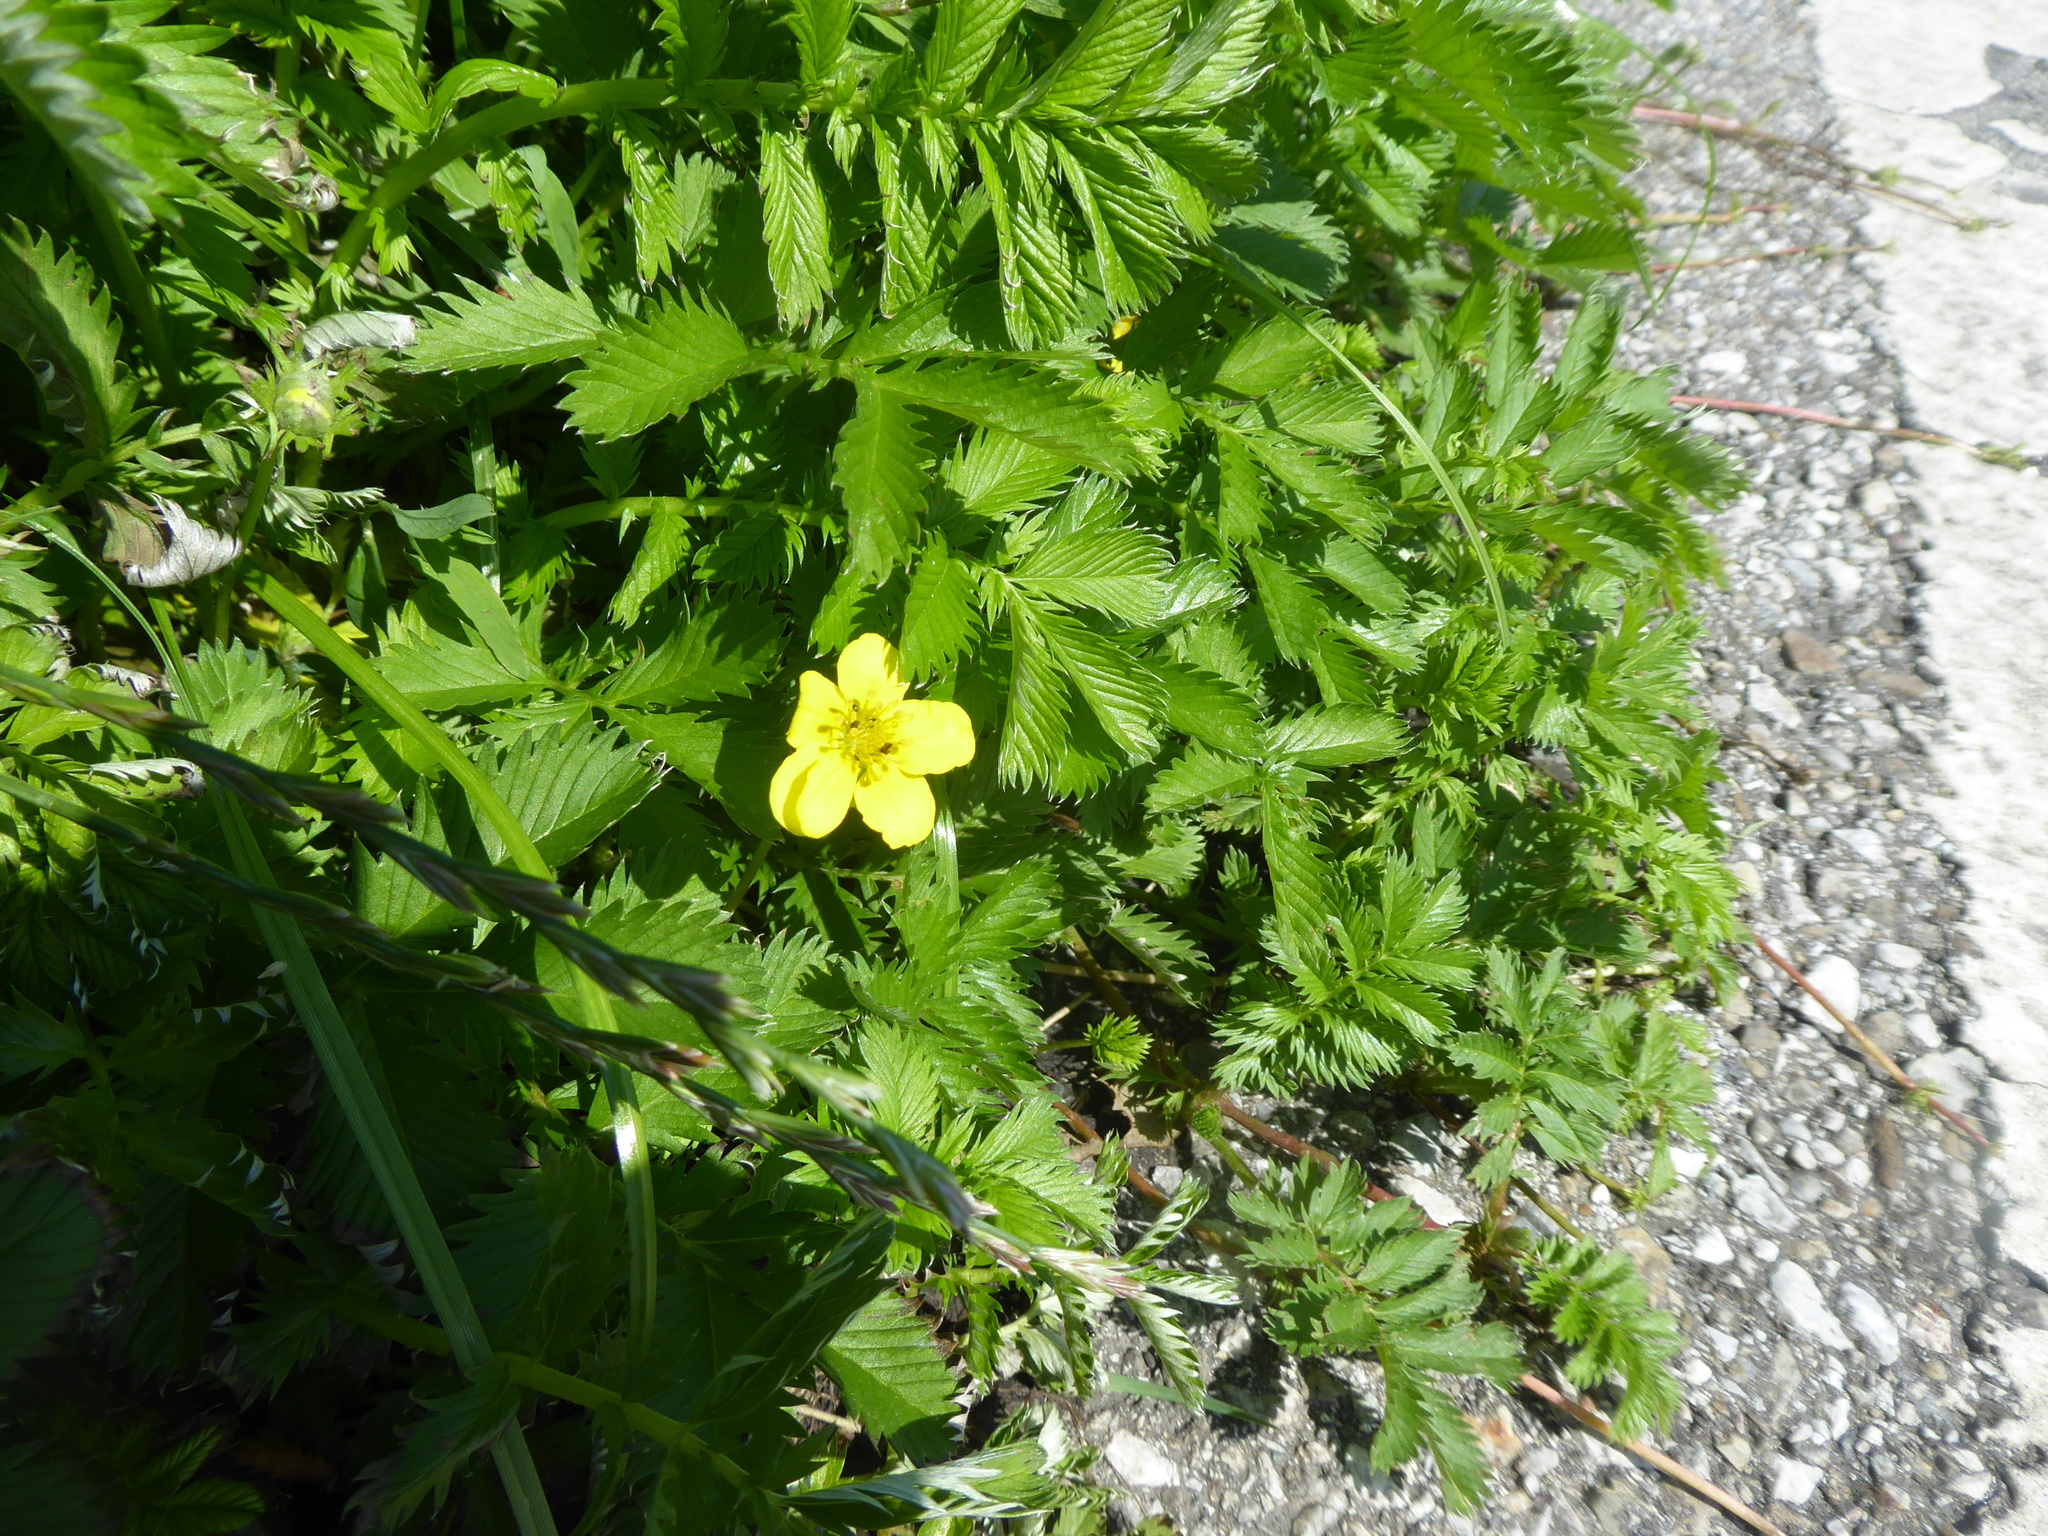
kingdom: Plantae
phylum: Tracheophyta
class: Magnoliopsida
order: Rosales
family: Rosaceae
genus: Argentina
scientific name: Argentina anserina
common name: Common silverweed
